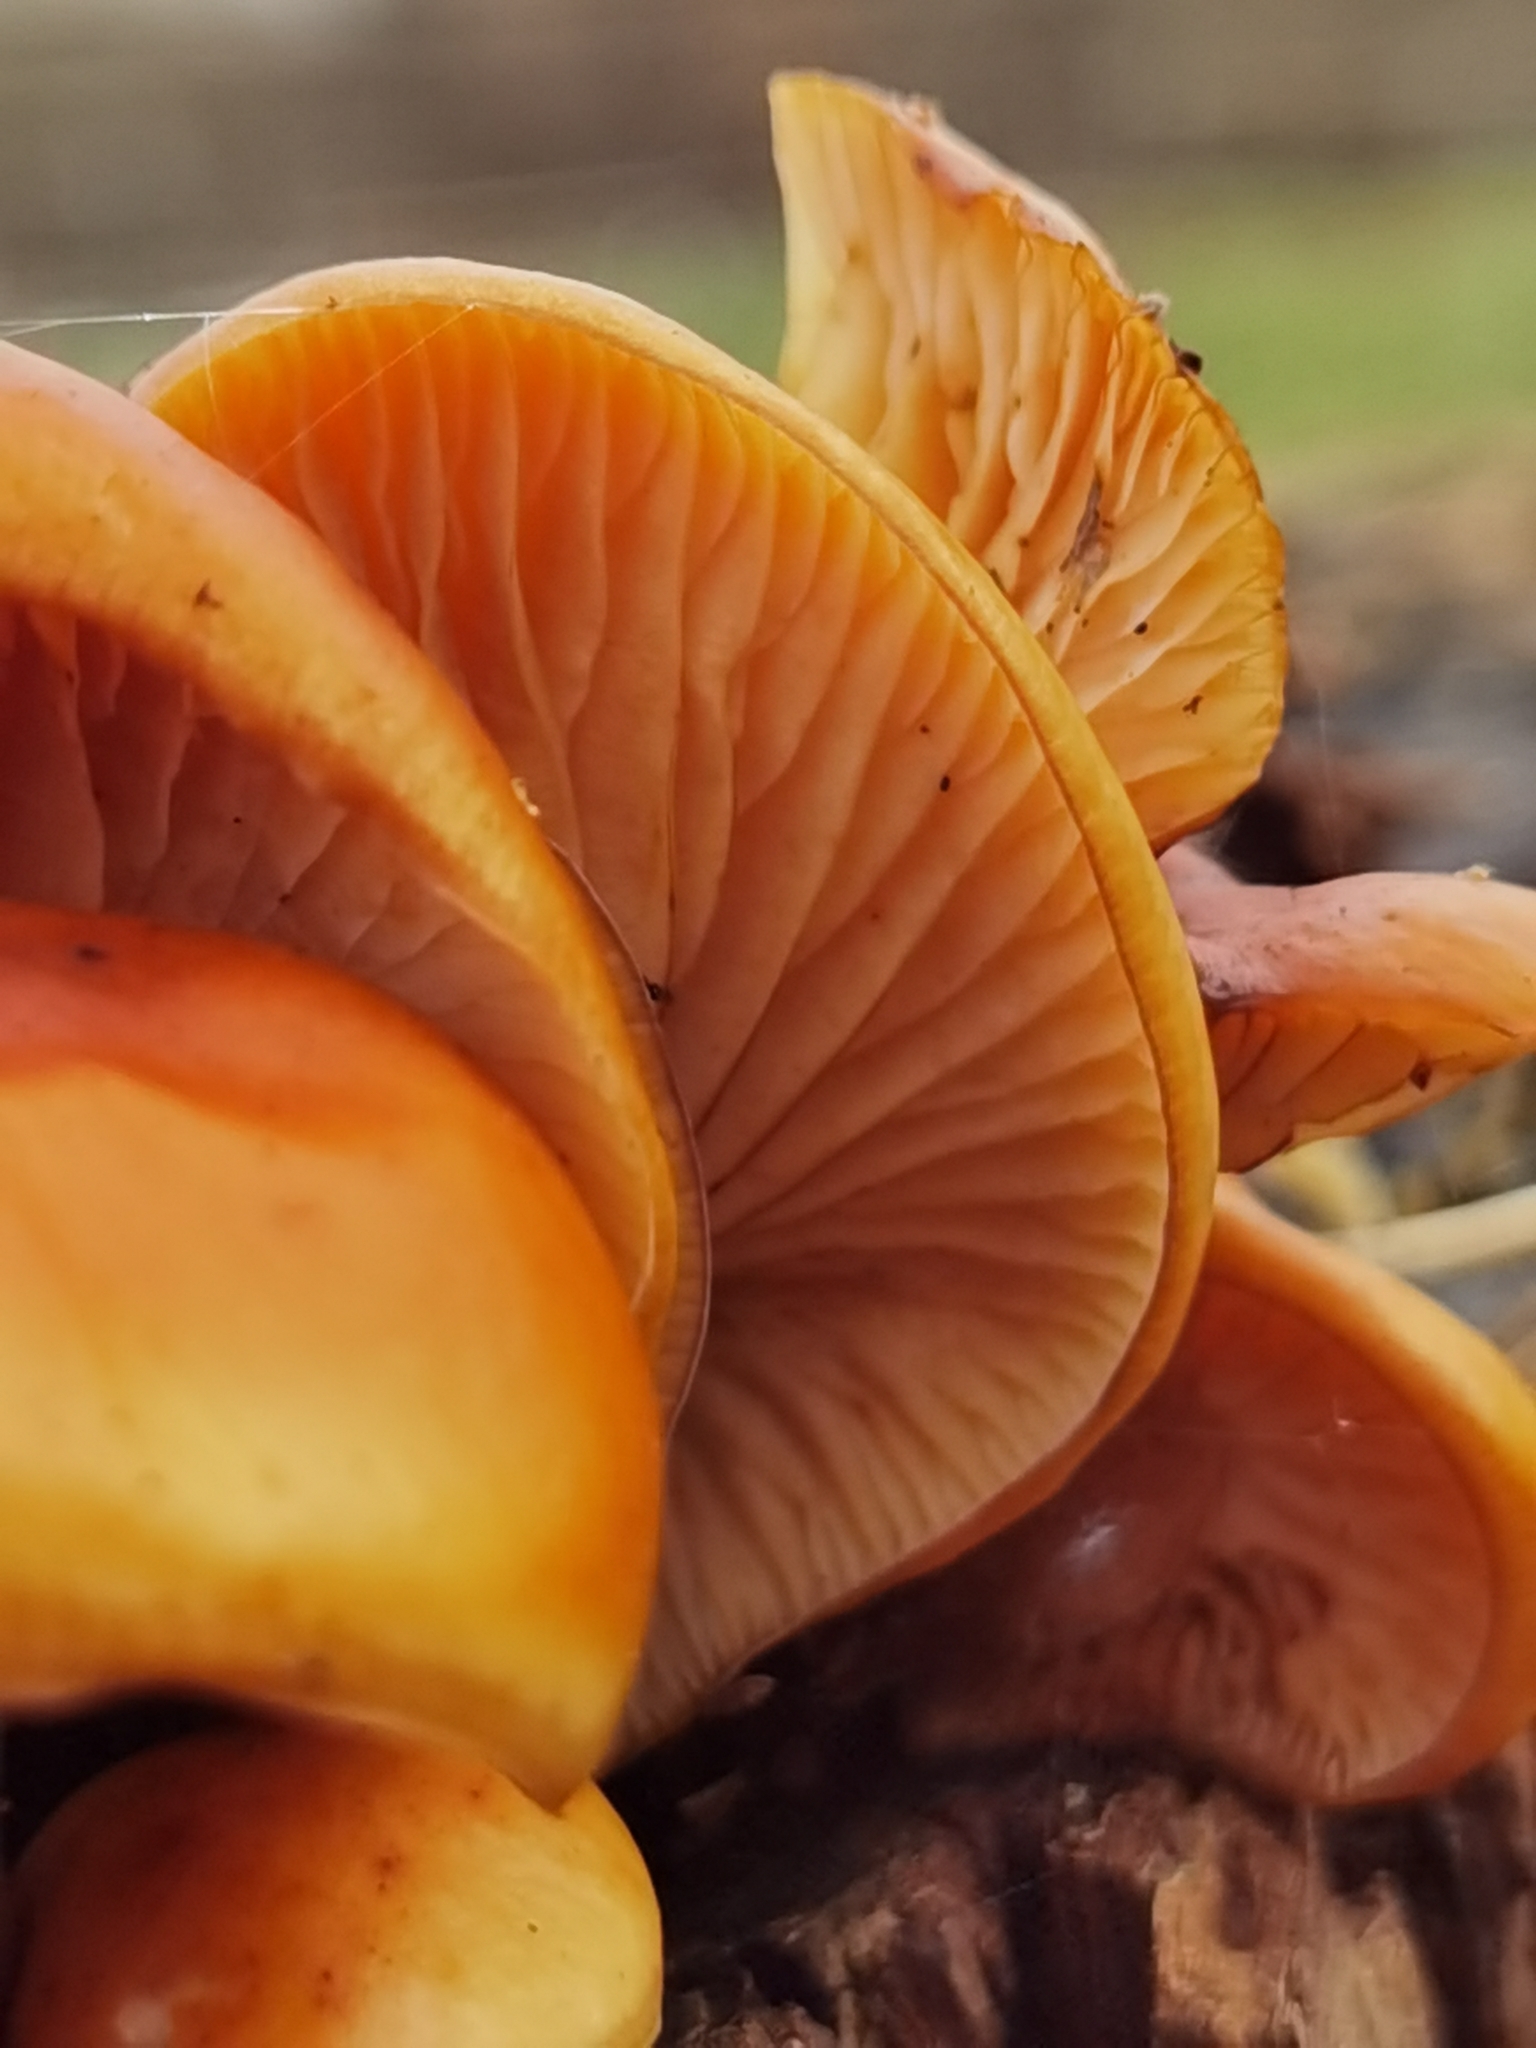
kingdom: Fungi
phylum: Basidiomycota
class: Agaricomycetes
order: Agaricales
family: Physalacriaceae
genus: Flammulina
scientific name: Flammulina
